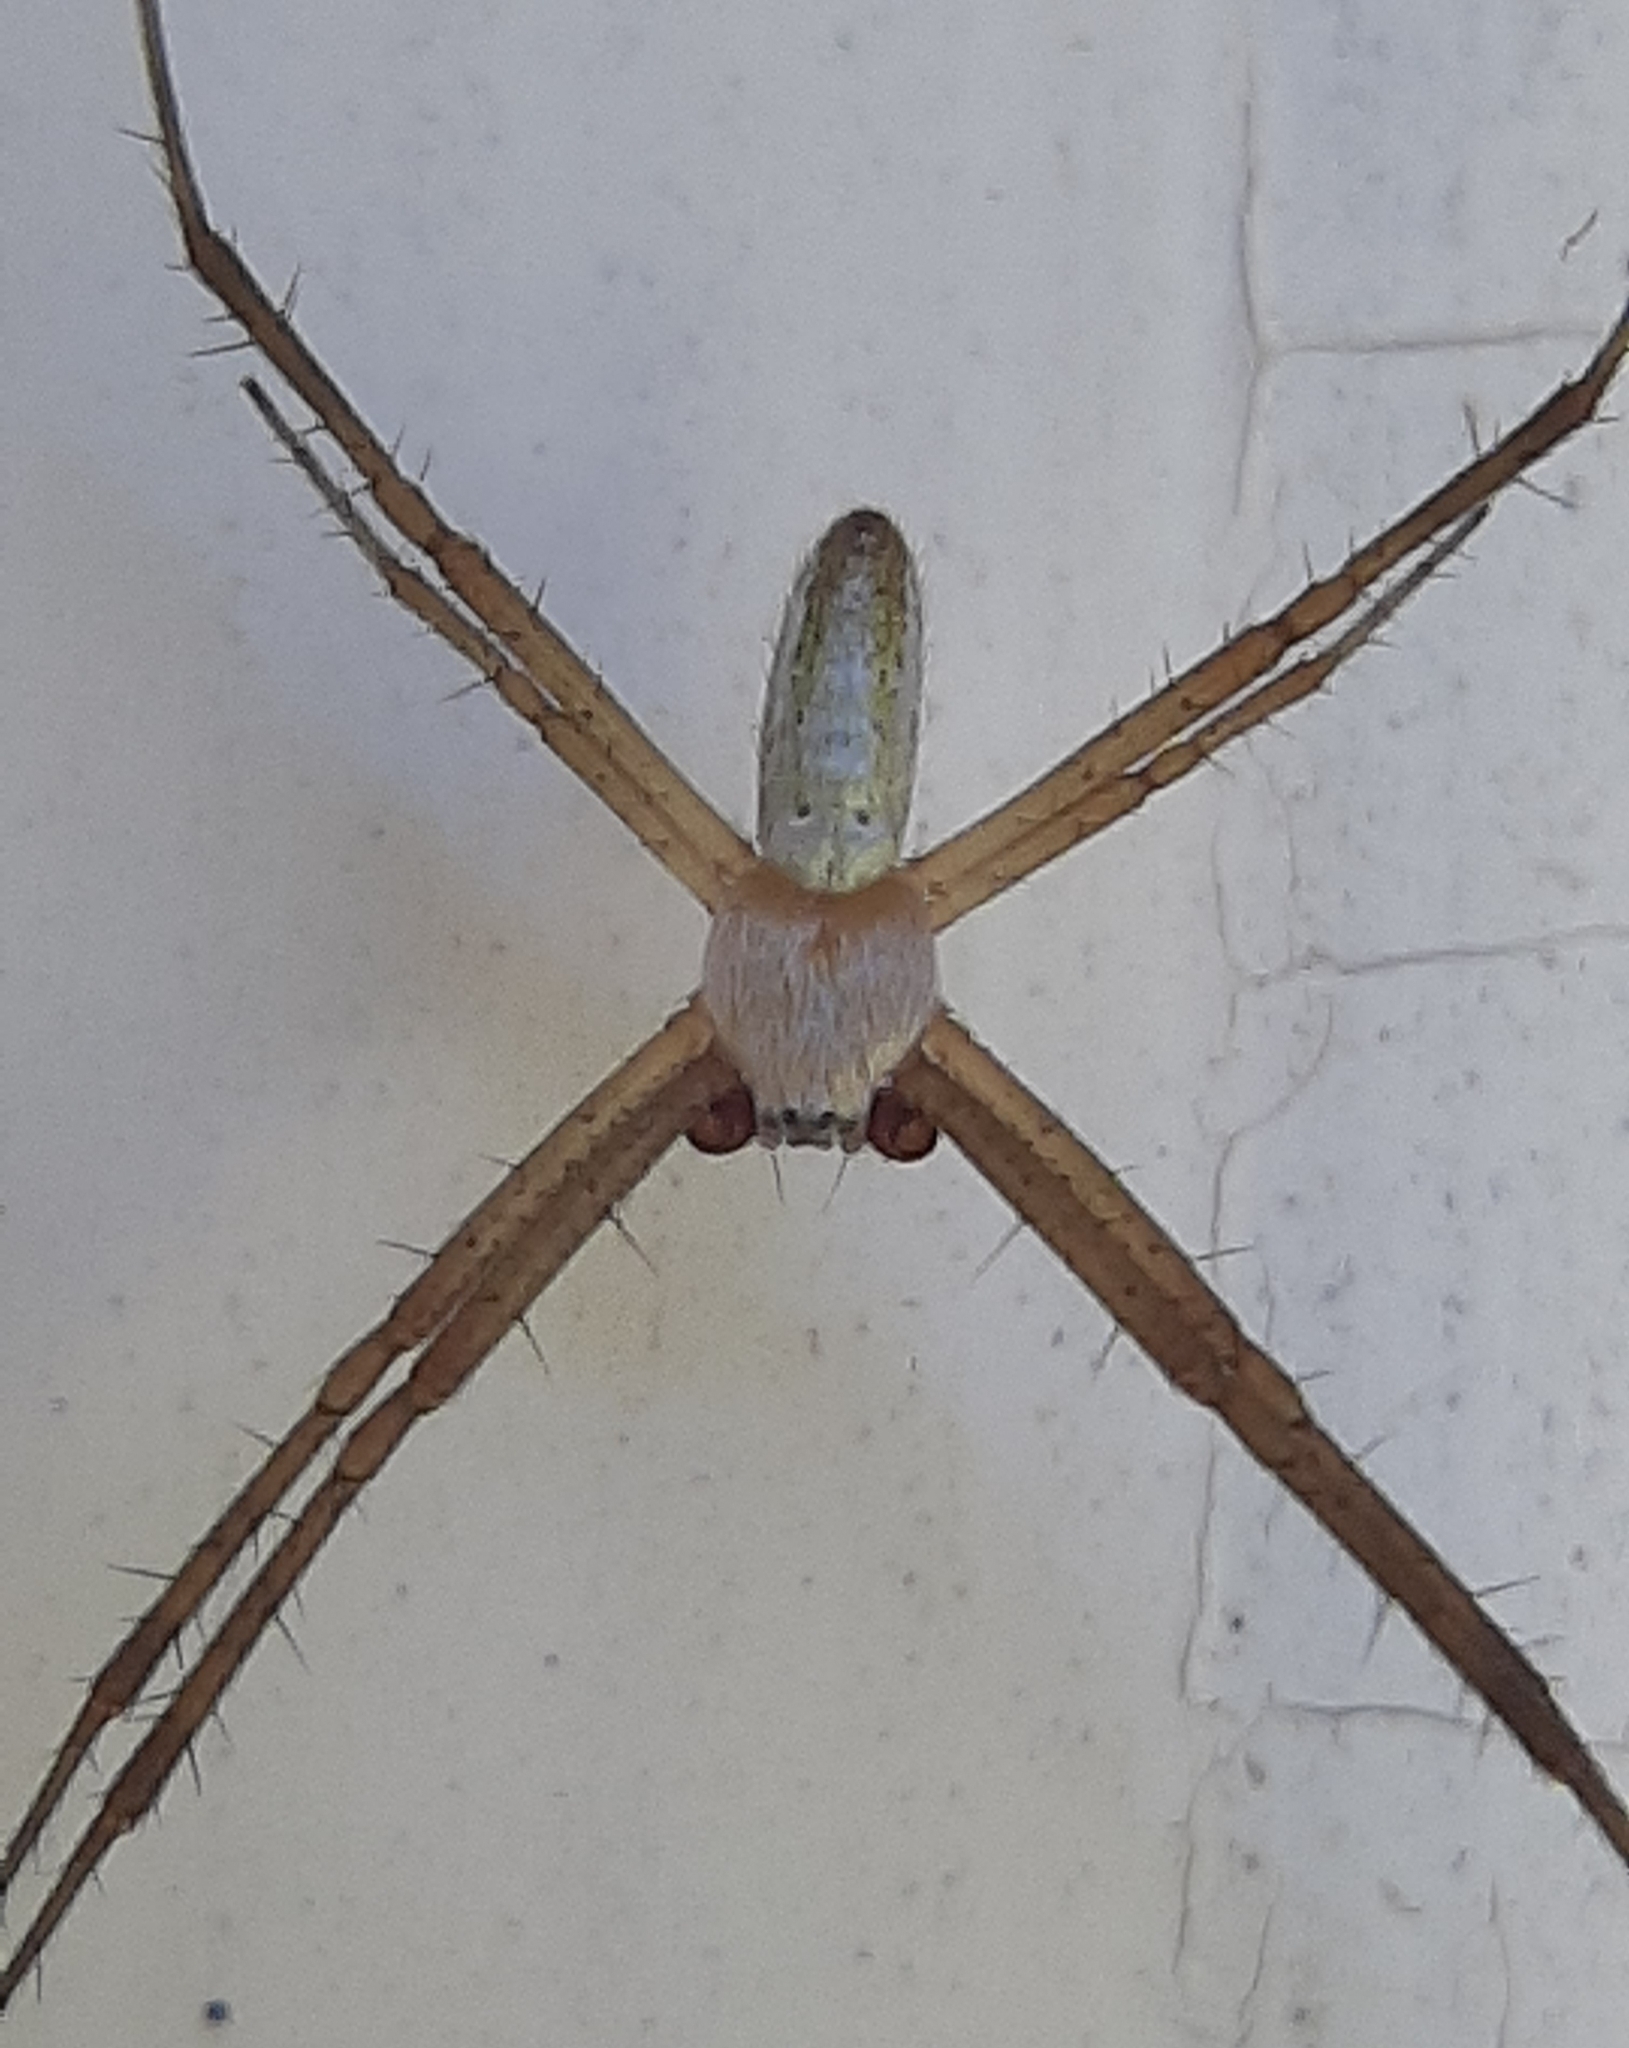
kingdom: Animalia
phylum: Arthropoda
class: Arachnida
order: Araneae
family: Araneidae
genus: Argiope
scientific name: Argiope trifasciata
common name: Banded garden spider
